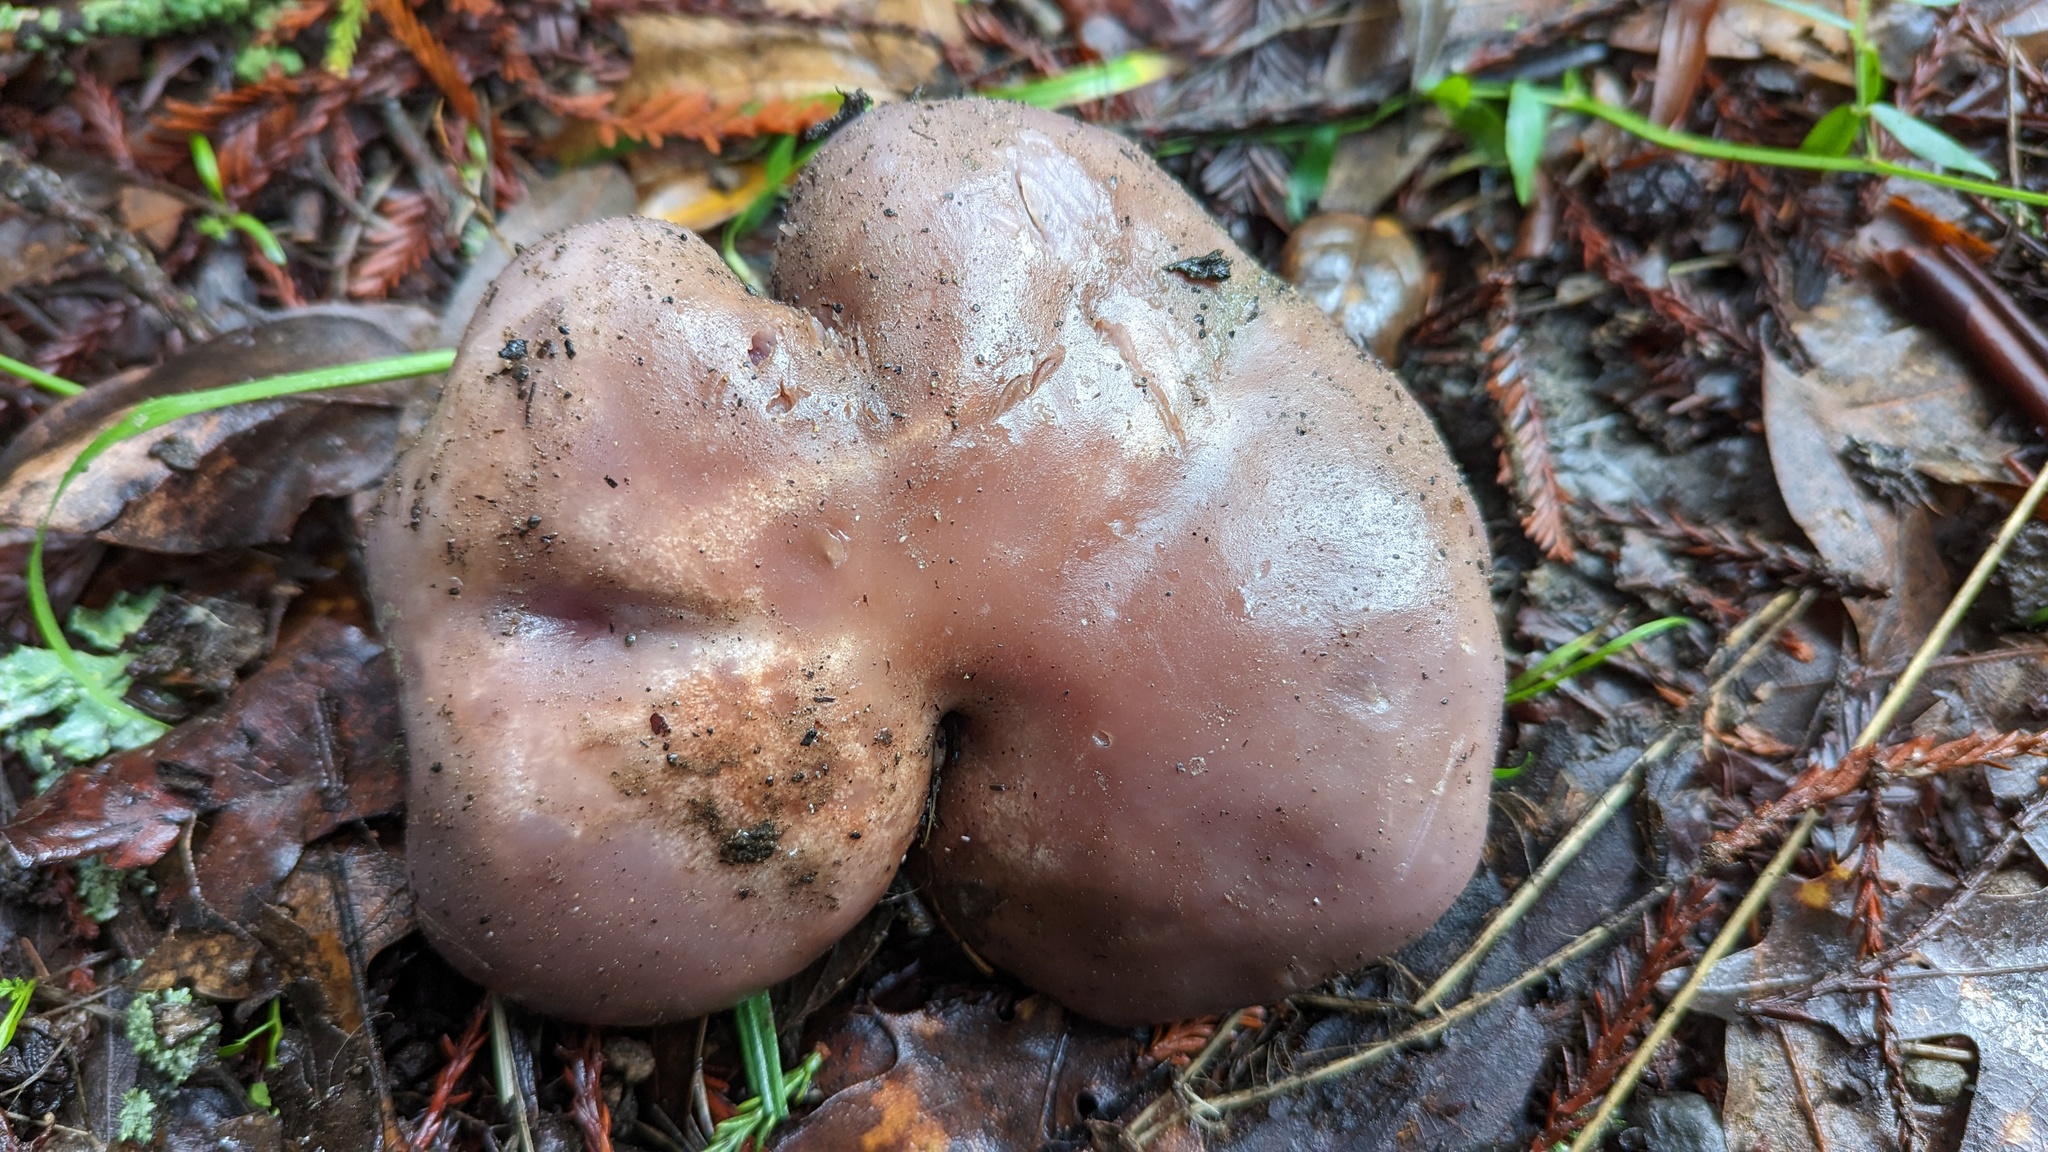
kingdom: Fungi
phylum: Basidiomycota
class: Agaricomycetes
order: Agaricales
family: Tricholomataceae
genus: Collybia
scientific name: Collybia
